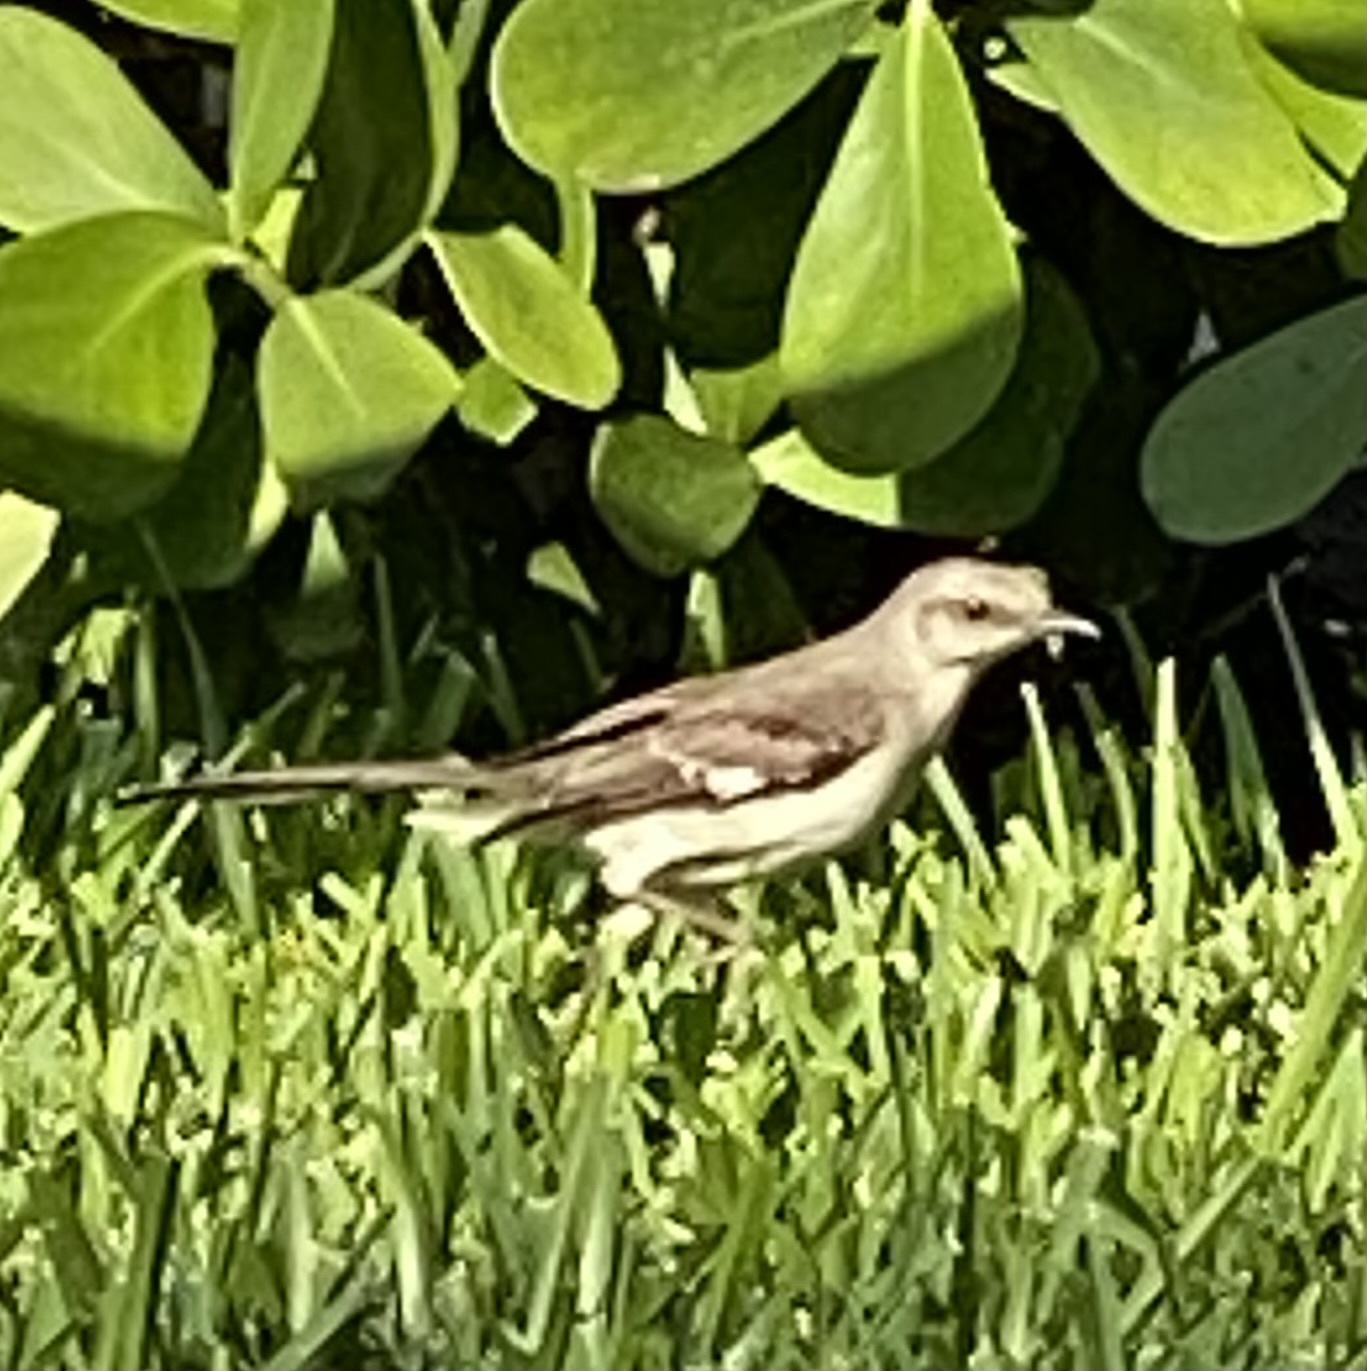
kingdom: Animalia
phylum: Chordata
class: Aves
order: Passeriformes
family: Mimidae
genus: Mimus
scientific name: Mimus polyglottos
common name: Northern mockingbird
